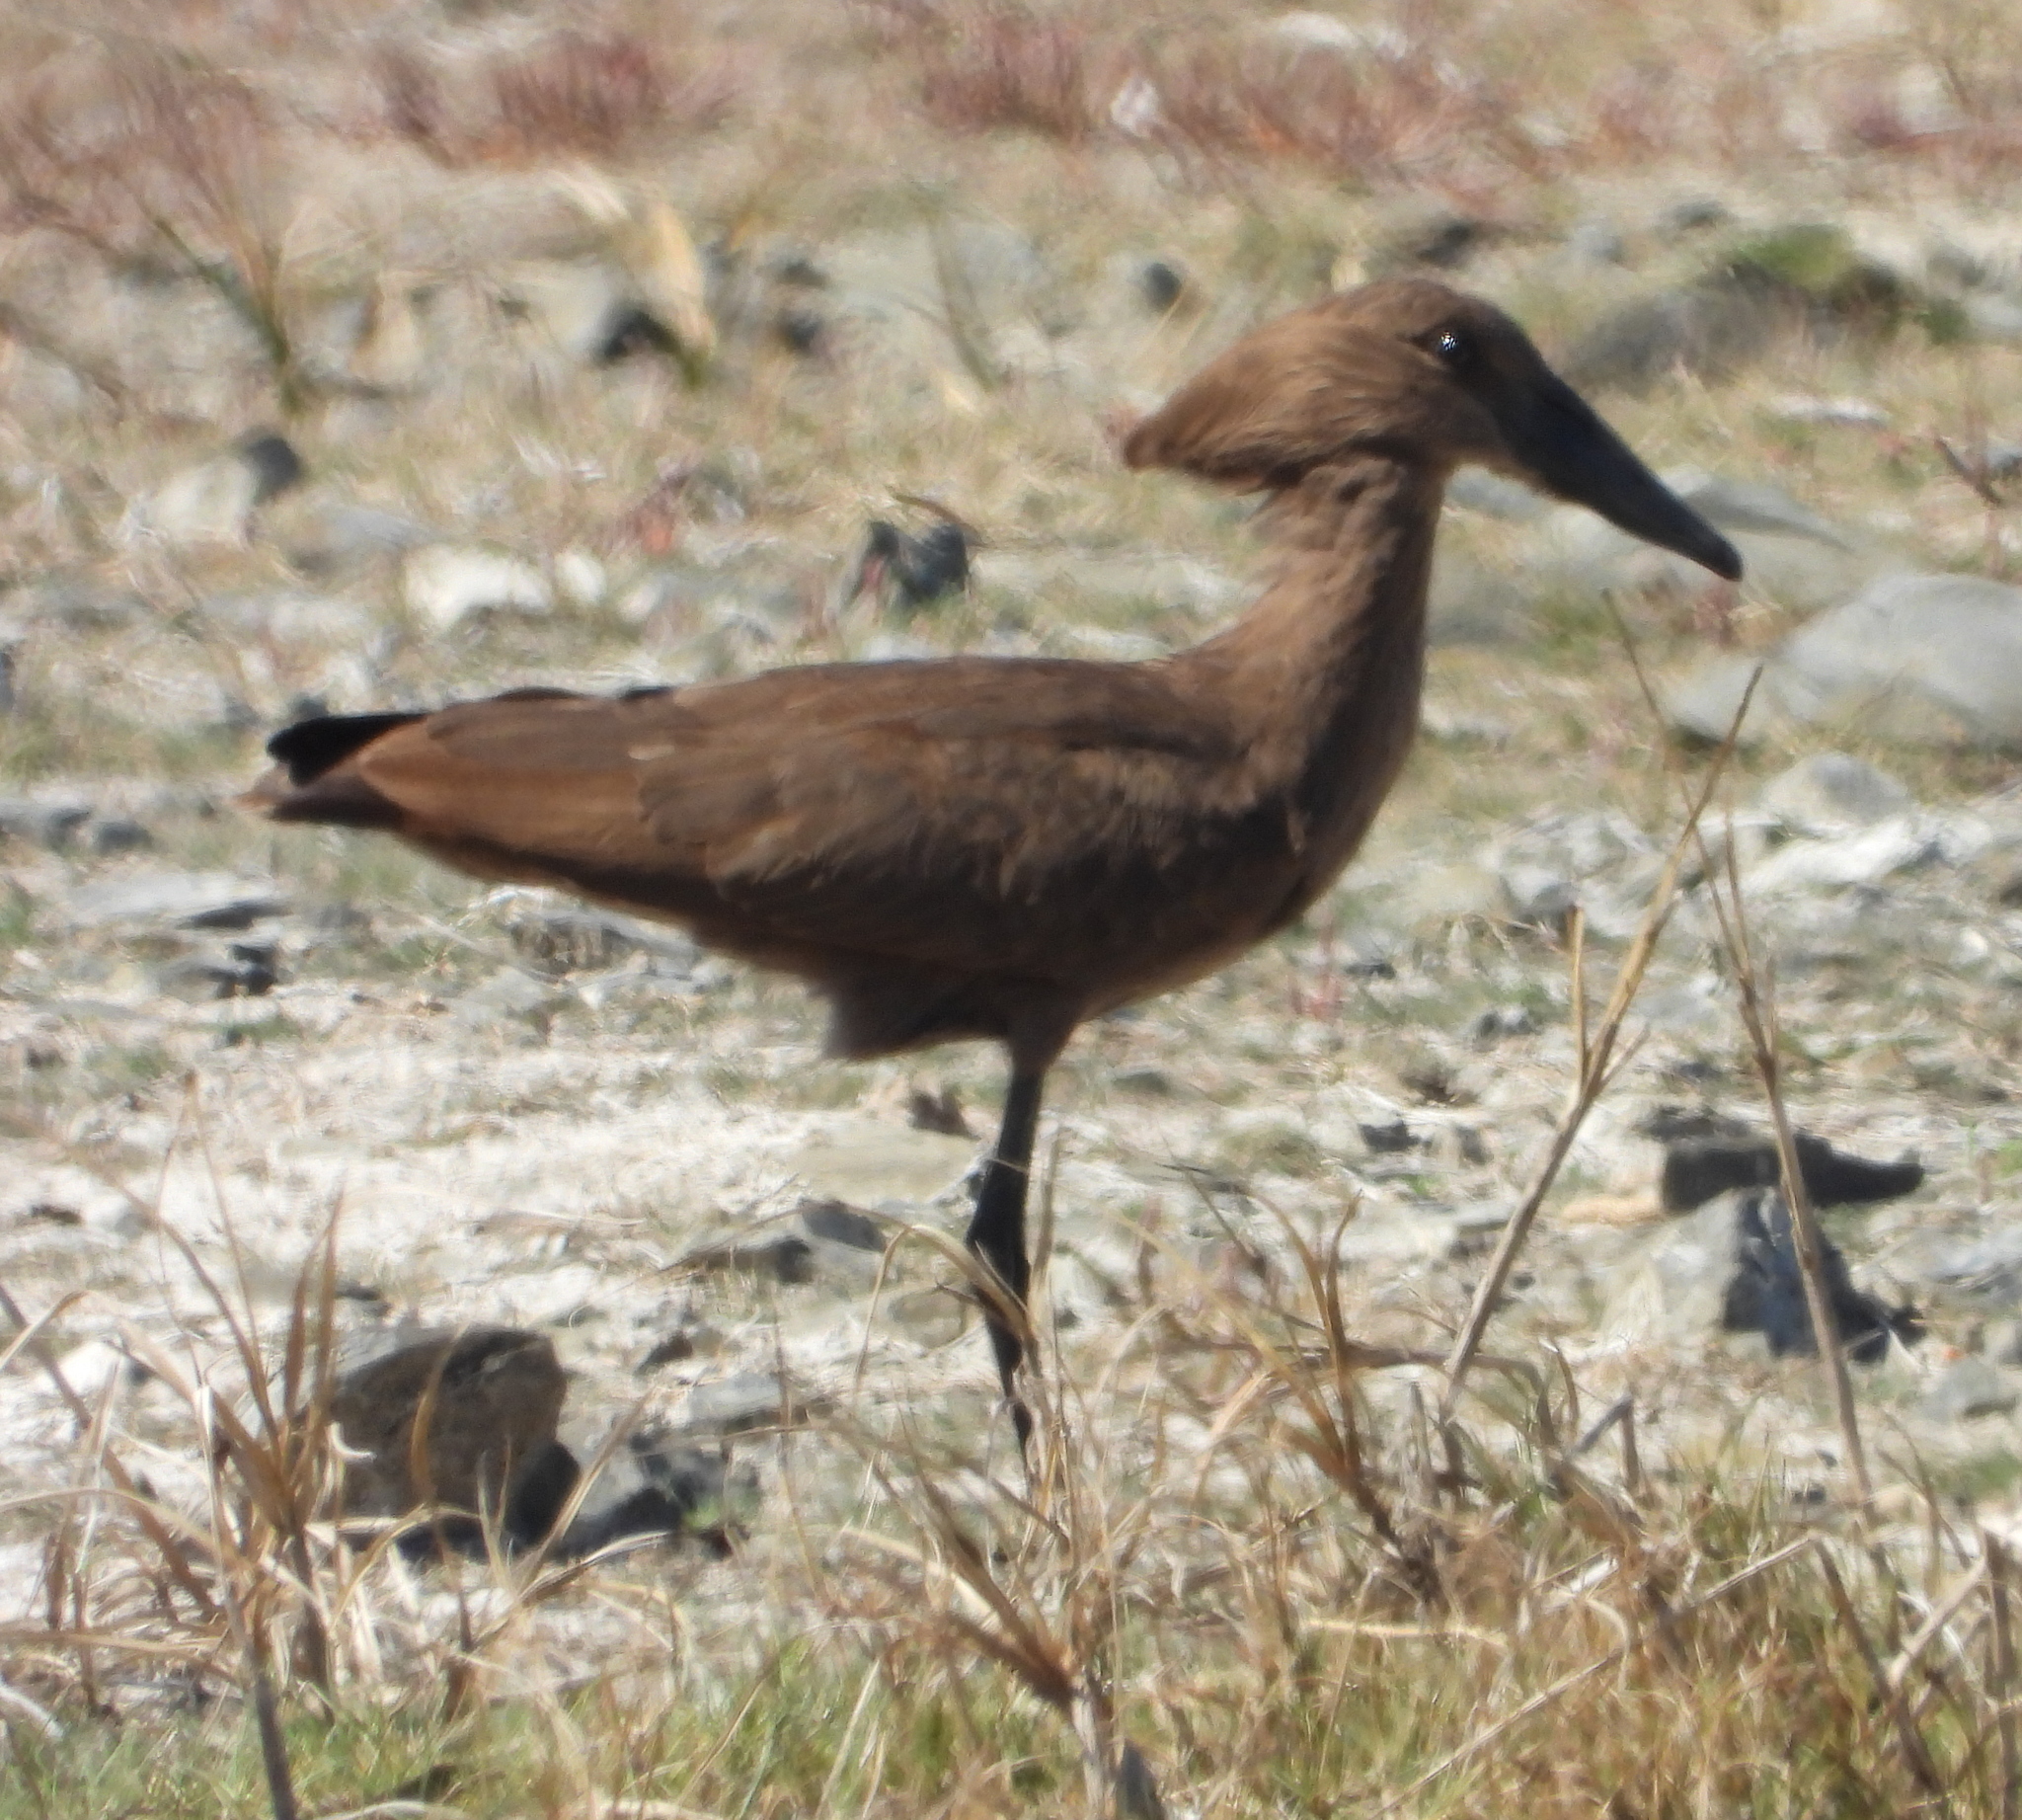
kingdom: Animalia
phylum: Chordata
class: Aves
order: Pelecaniformes
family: Scopidae
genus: Scopus
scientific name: Scopus umbretta
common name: Hamerkop
